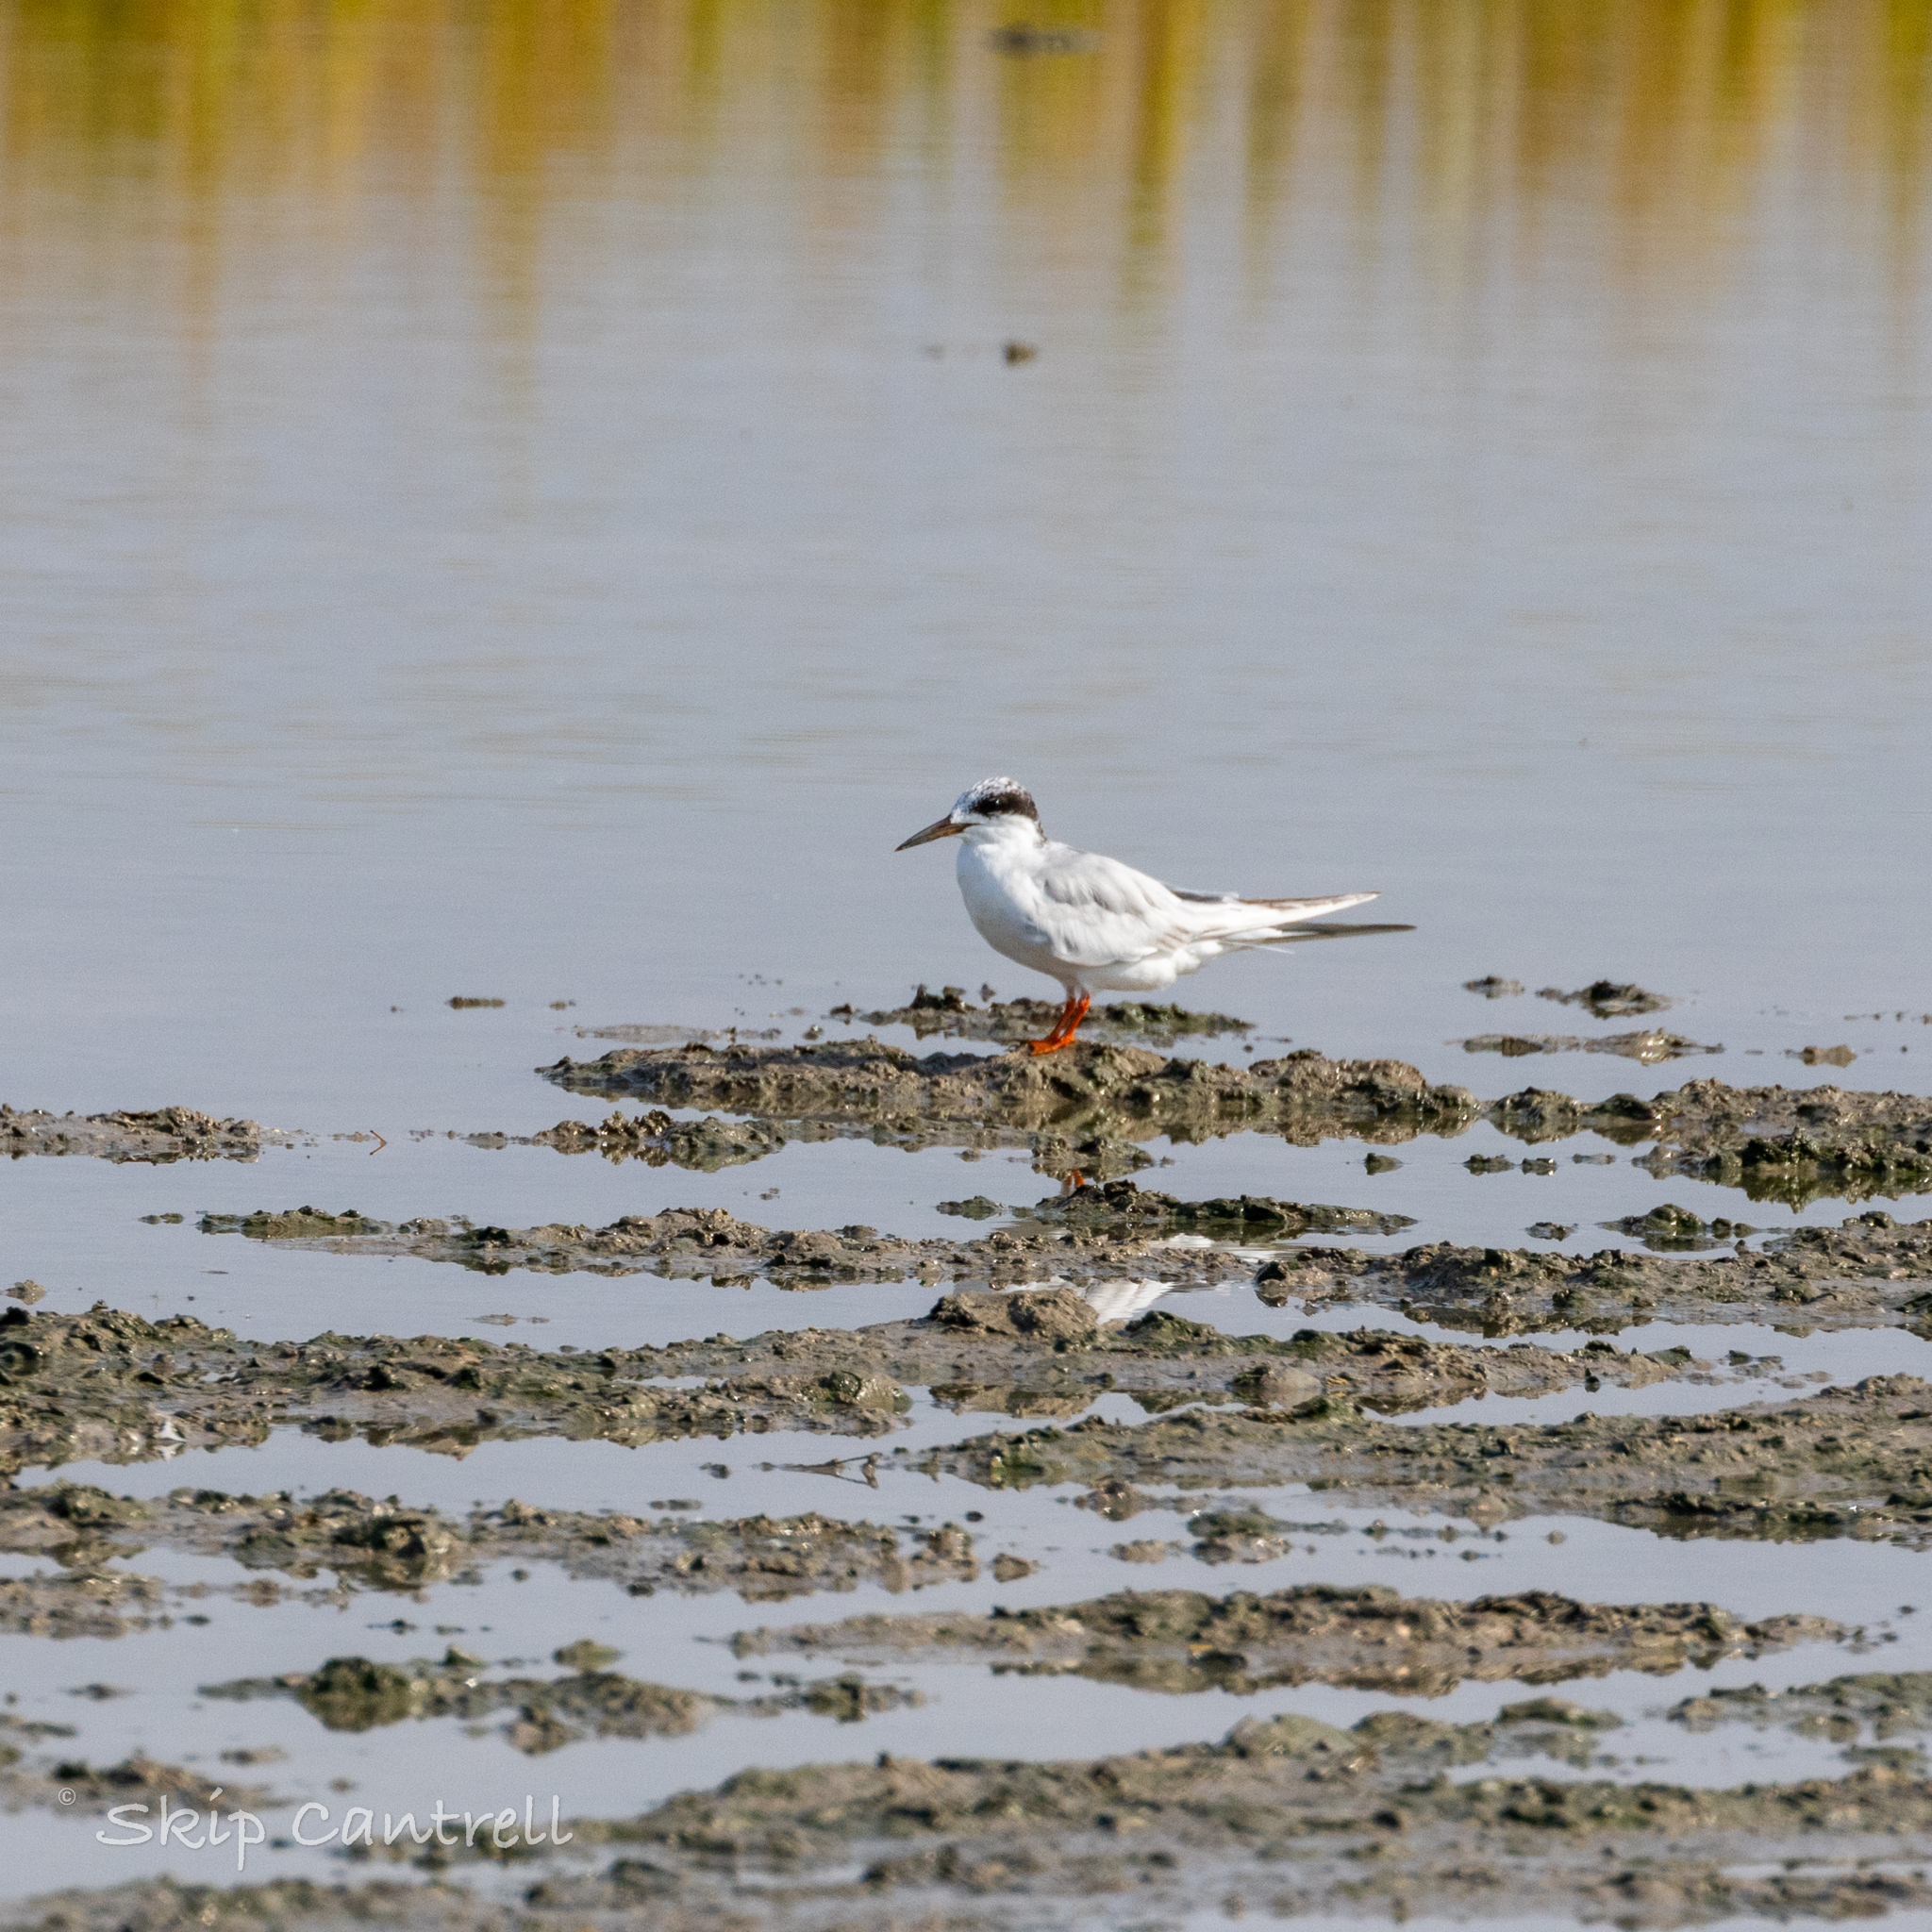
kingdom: Animalia
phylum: Chordata
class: Aves
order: Charadriiformes
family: Laridae
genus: Sterna
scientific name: Sterna forsteri
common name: Forster's tern
